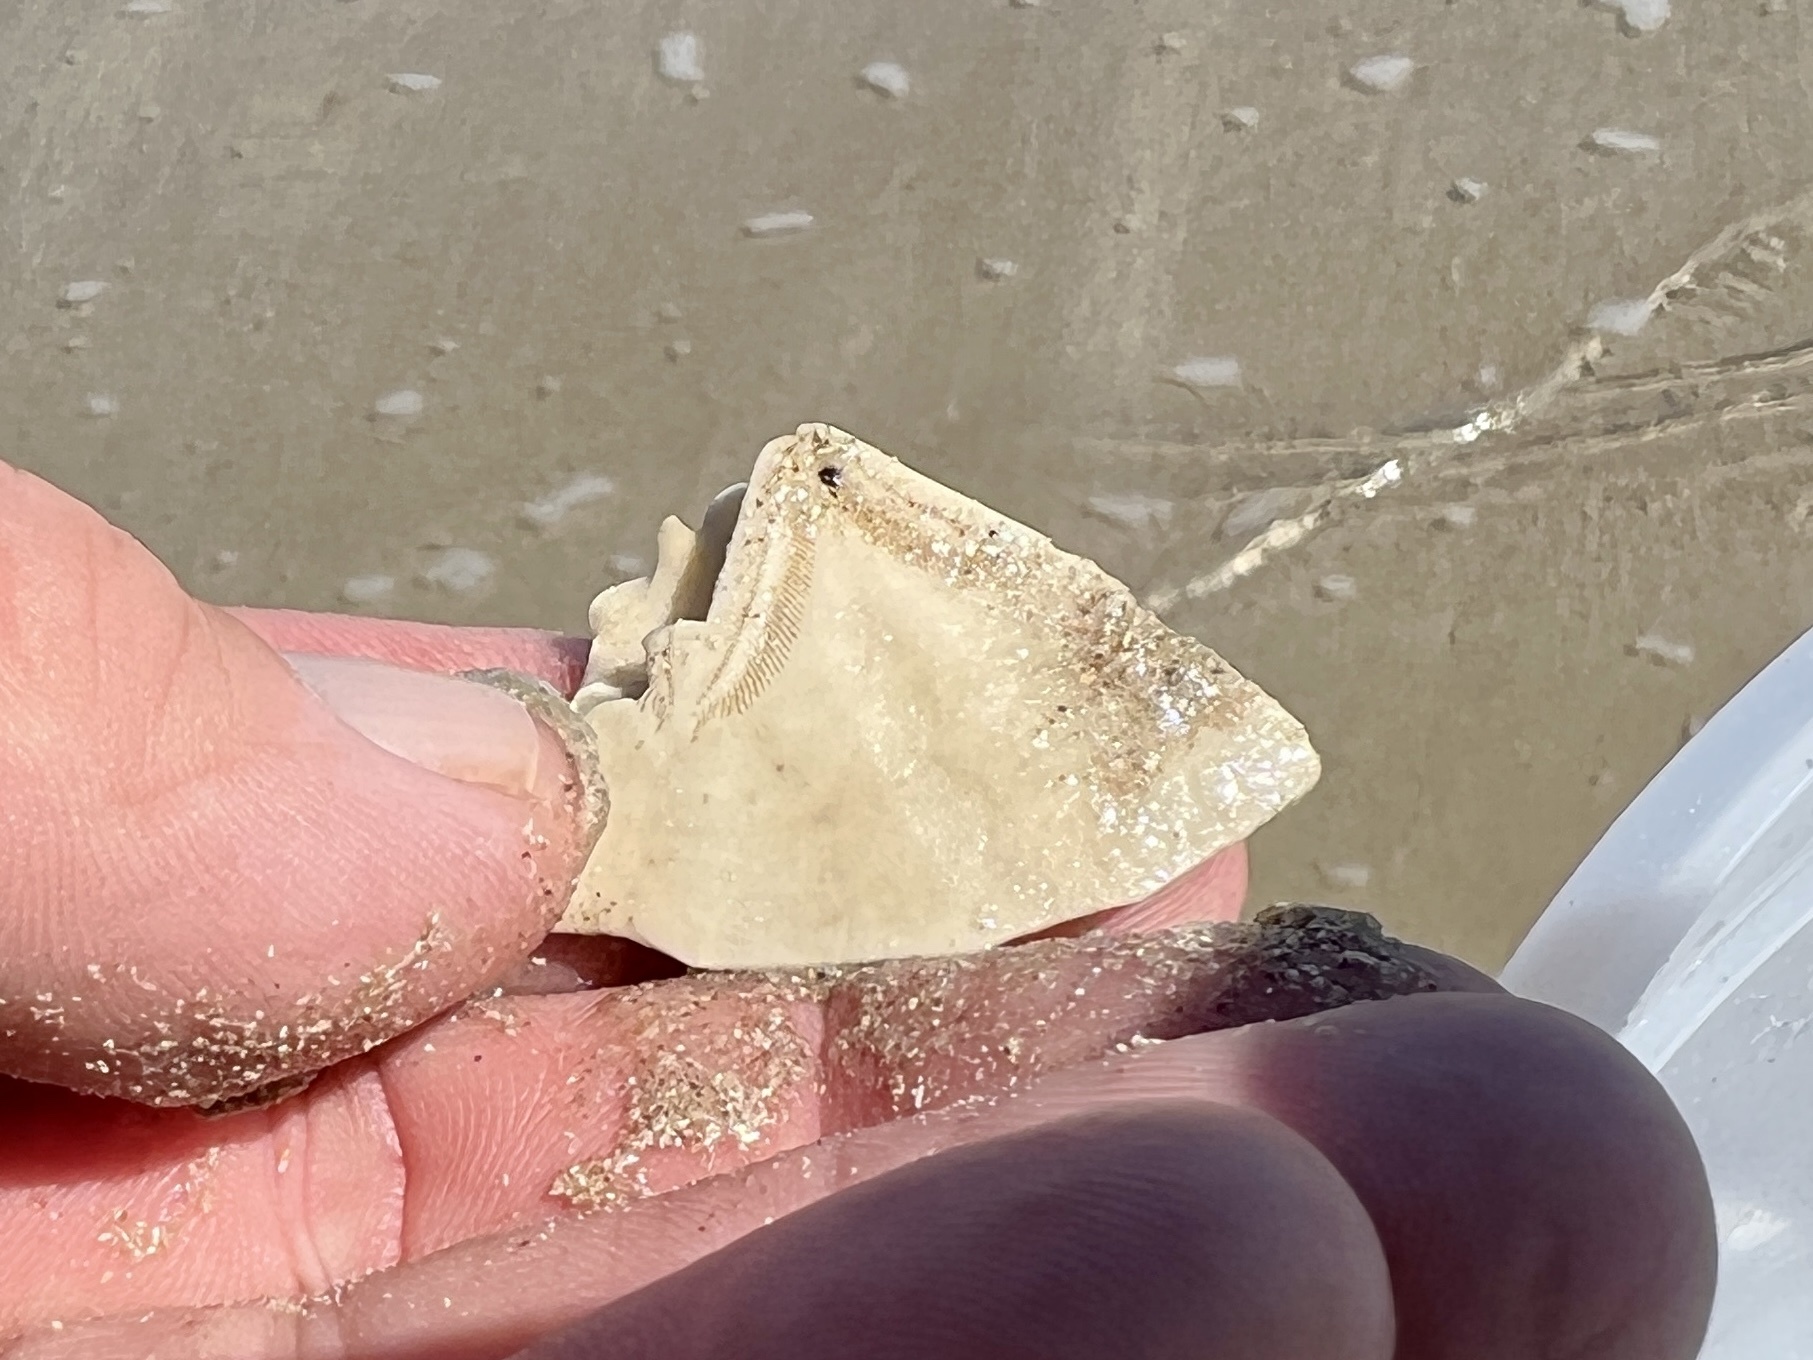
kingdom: Animalia
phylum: Echinodermata
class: Echinoidea
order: Echinolampadacea
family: Mellitidae
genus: Mellita
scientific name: Mellita quinquiesperforata
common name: Sand dollar
